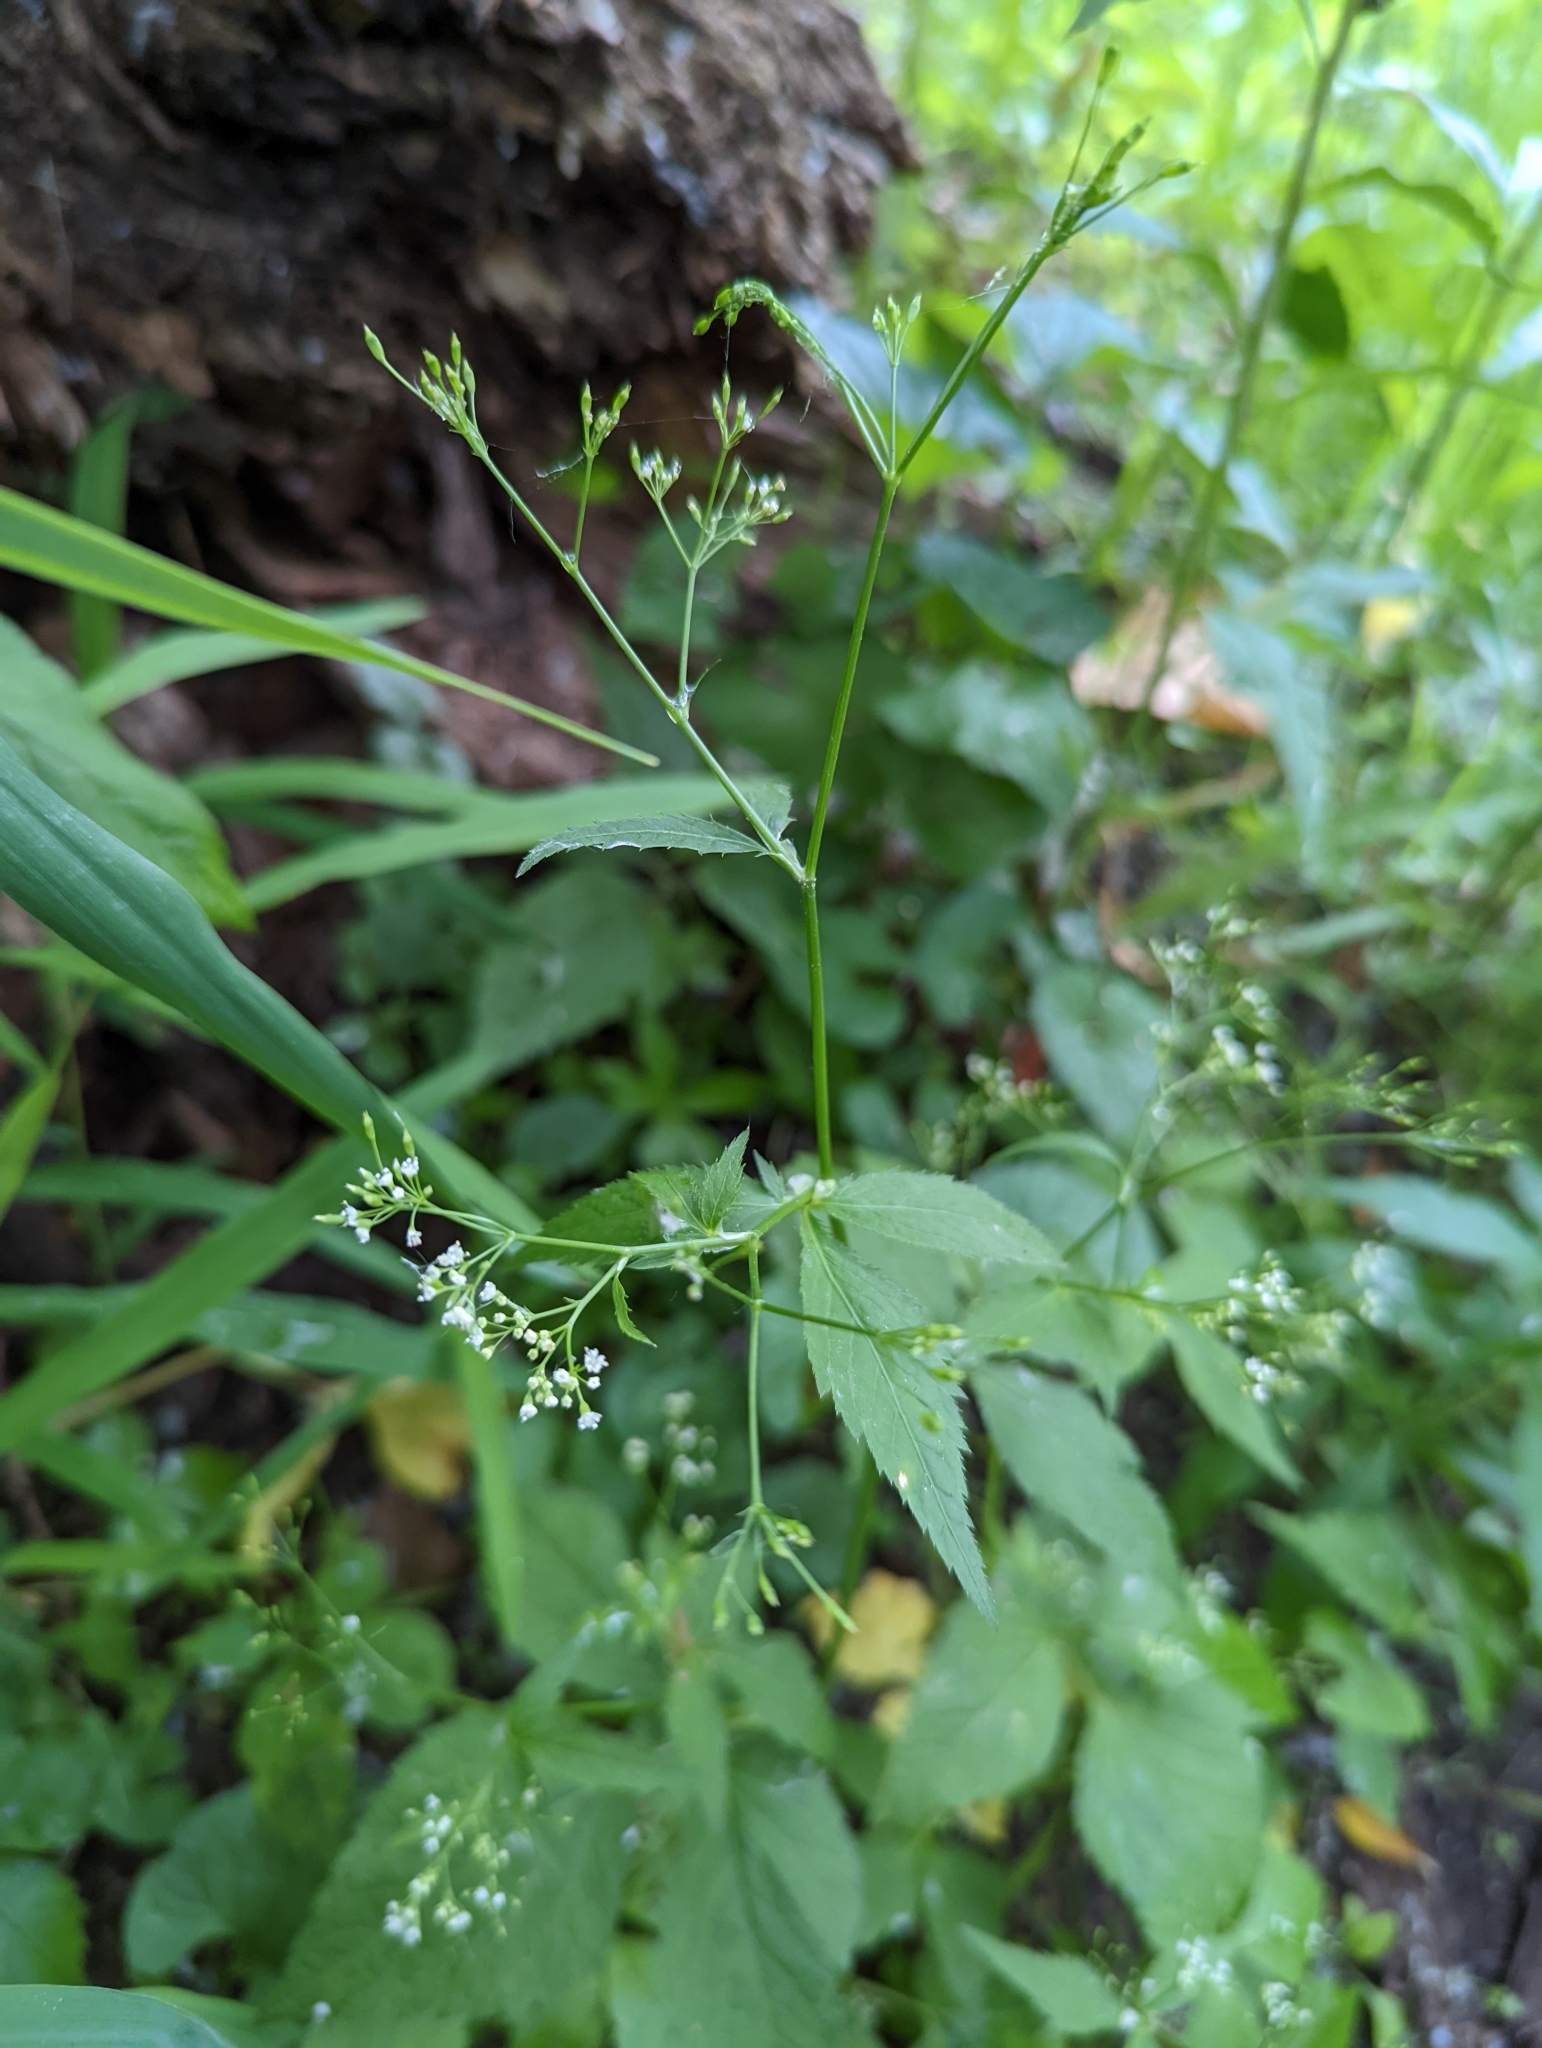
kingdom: Plantae
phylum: Tracheophyta
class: Magnoliopsida
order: Apiales
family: Apiaceae
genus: Cryptotaenia
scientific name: Cryptotaenia canadensis
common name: Honewort
